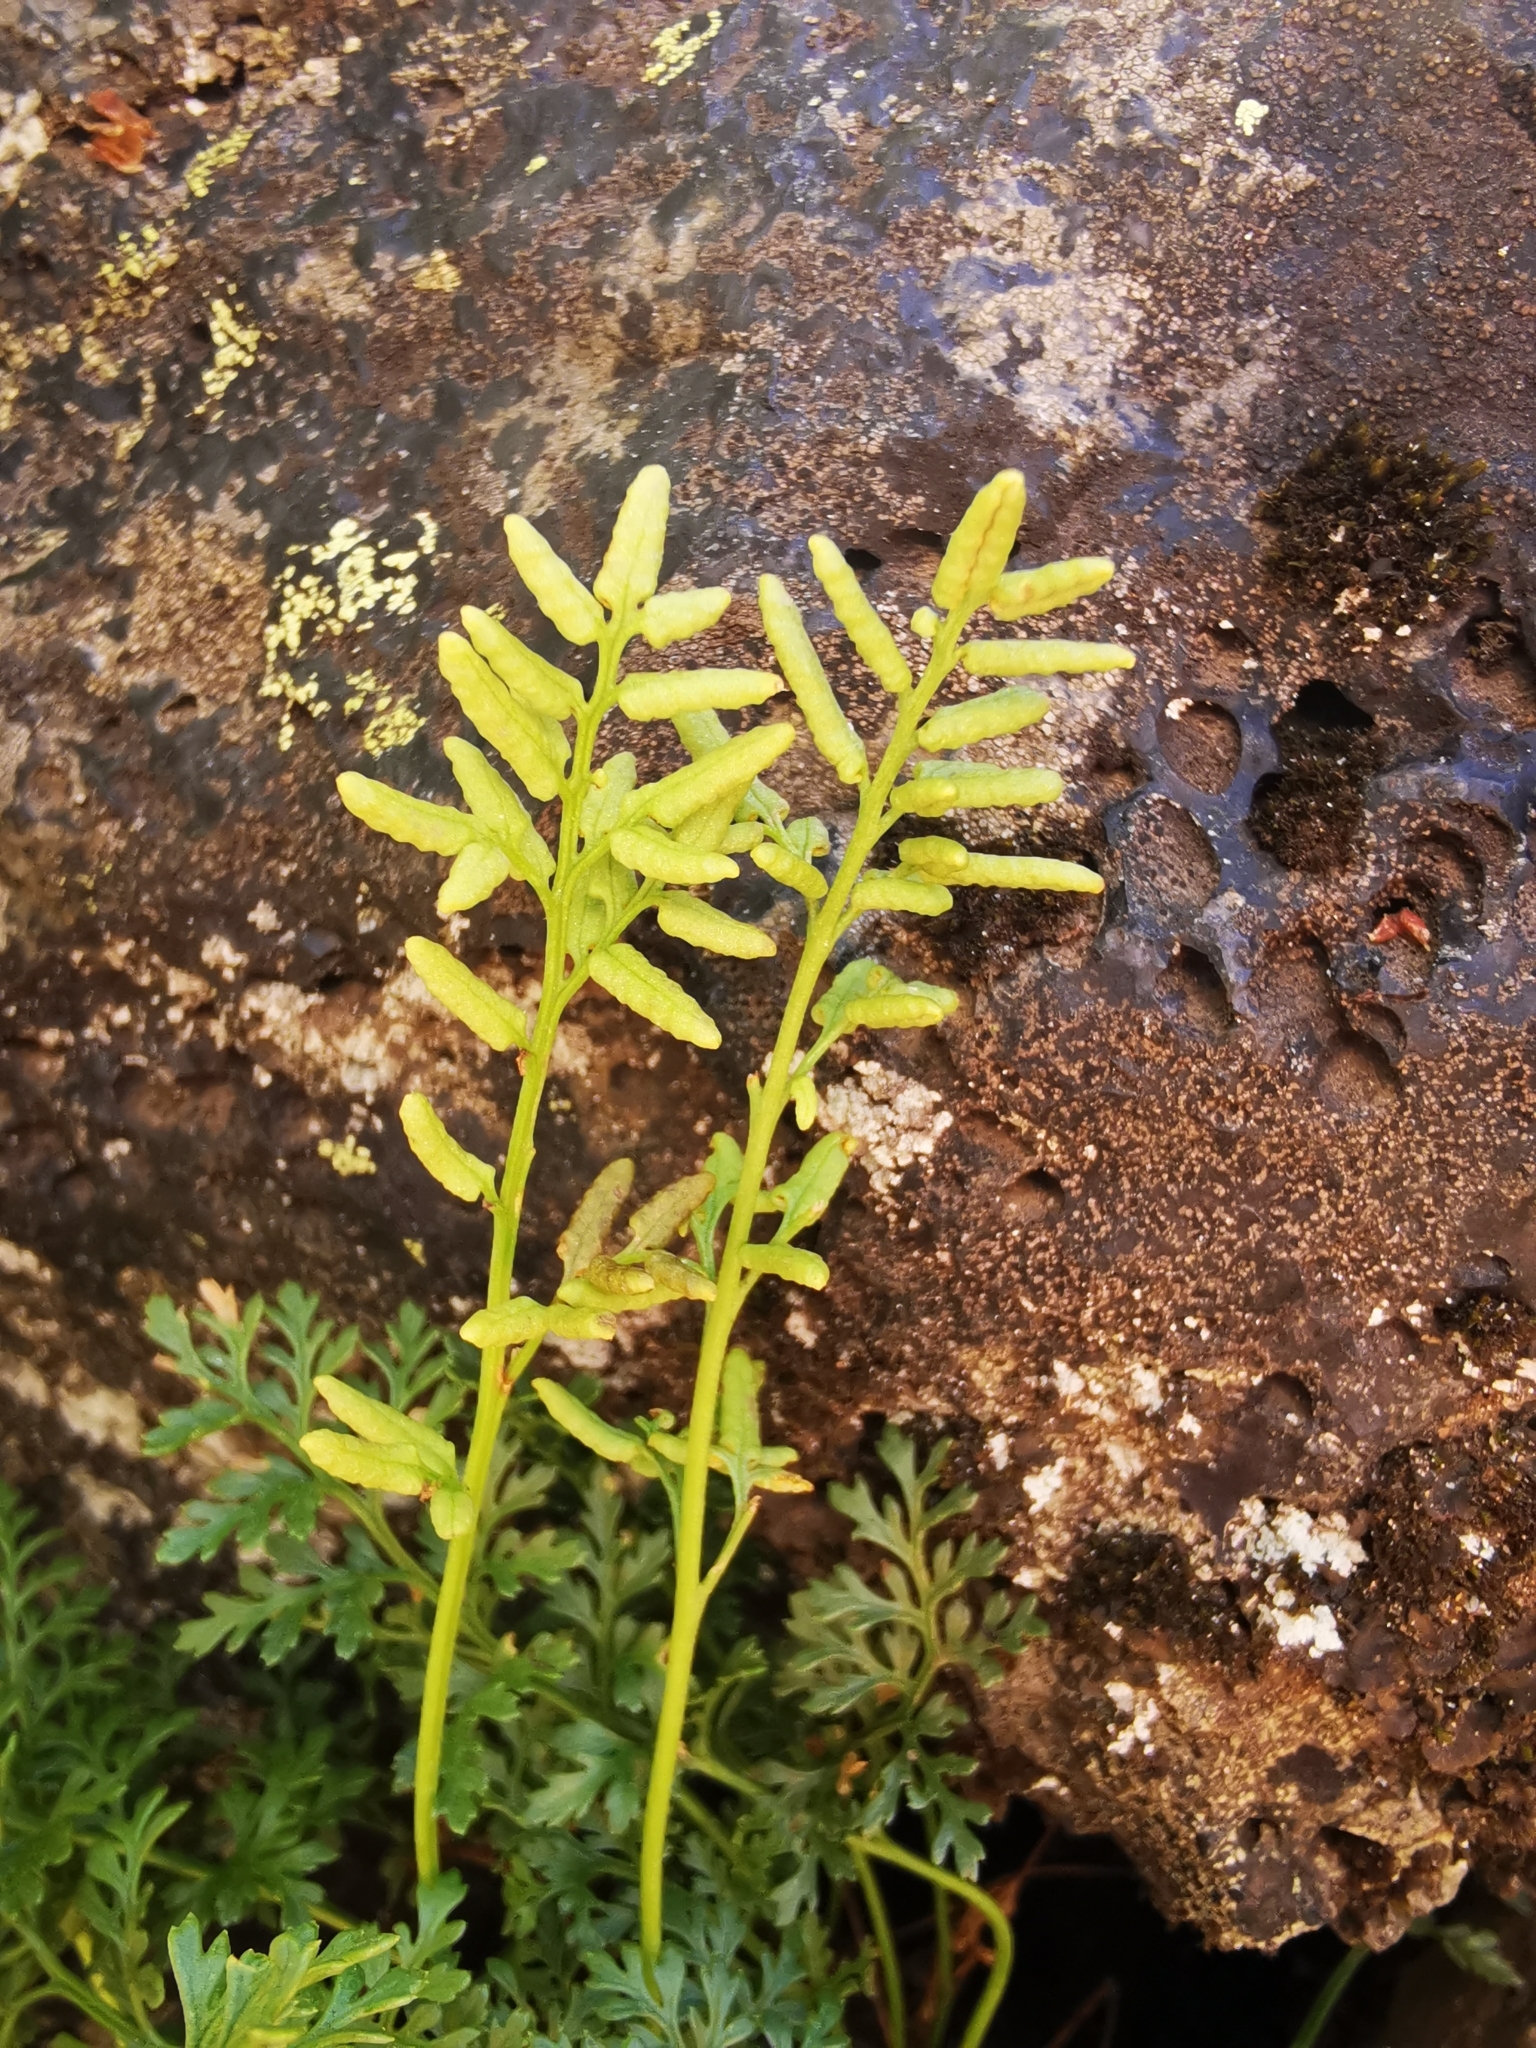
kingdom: Plantae
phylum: Tracheophyta
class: Polypodiopsida
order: Polypodiales
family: Pteridaceae
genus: Cryptogramma
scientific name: Cryptogramma fumariifolia
